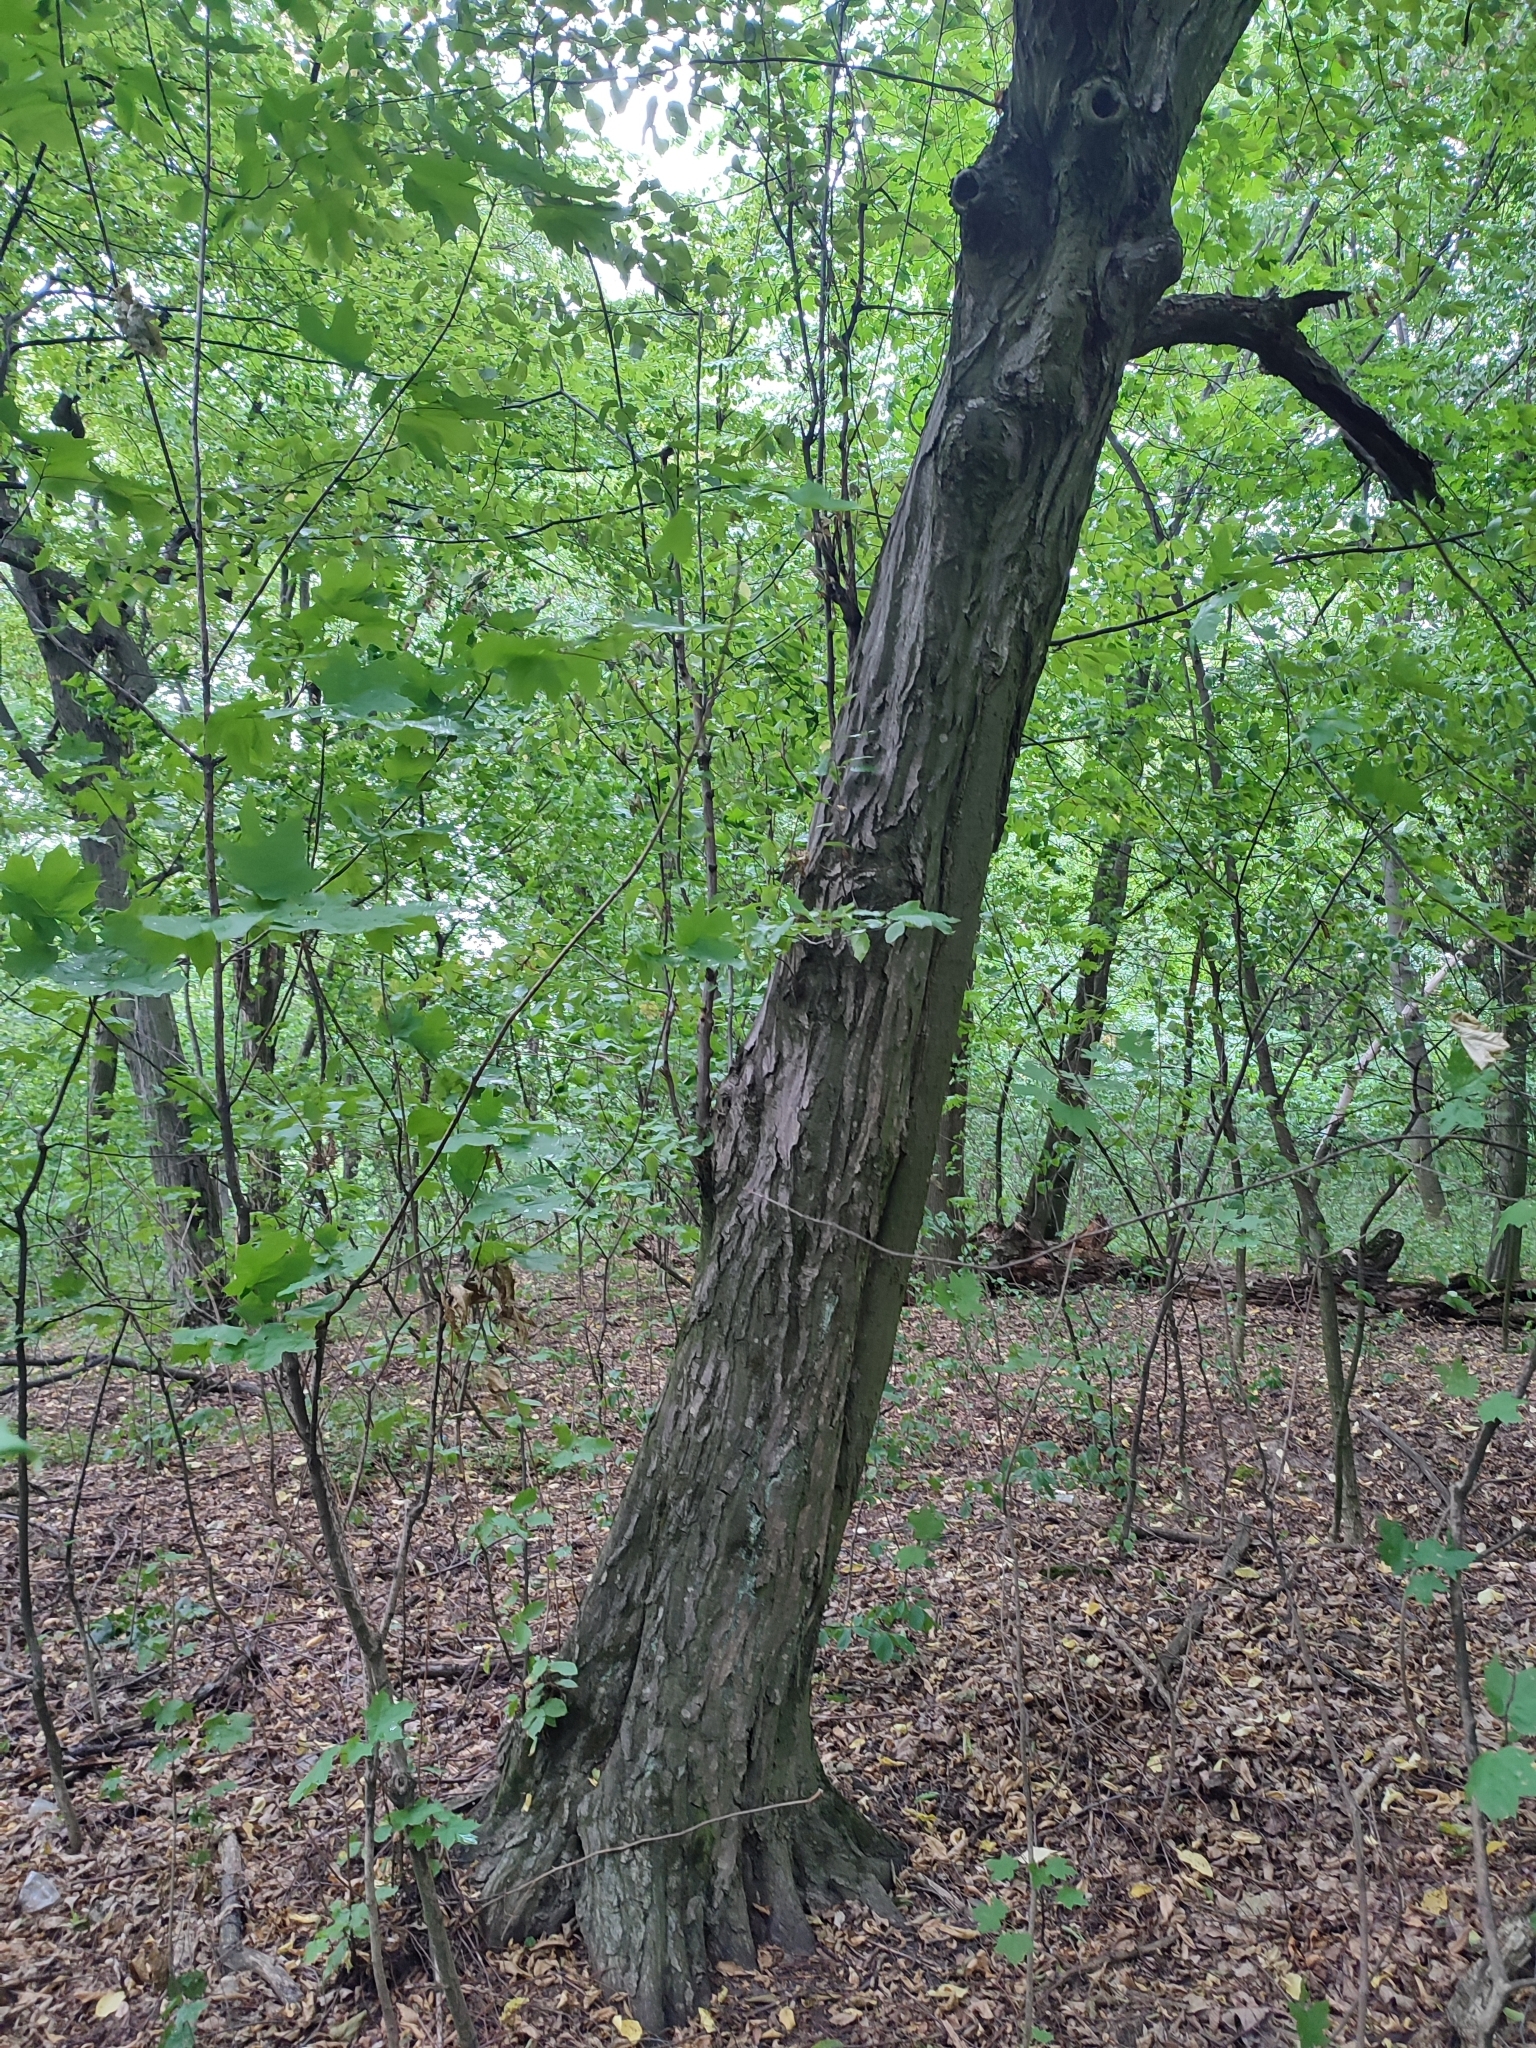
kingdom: Plantae
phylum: Tracheophyta
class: Magnoliopsida
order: Fagales
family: Betulaceae
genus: Carpinus
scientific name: Carpinus betulus
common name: Hornbeam
